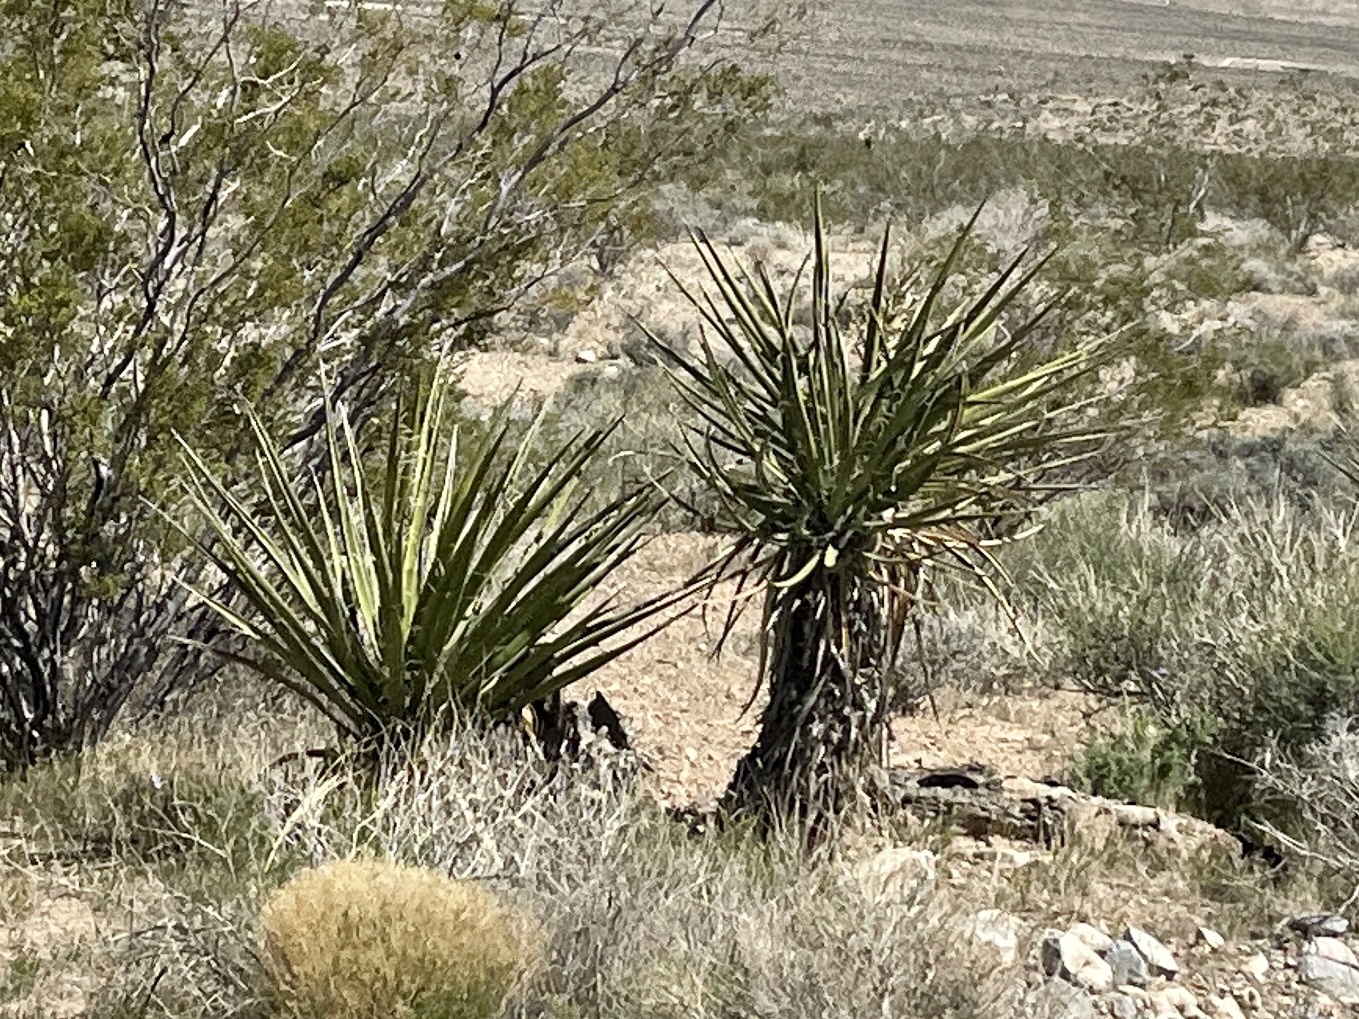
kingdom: Plantae
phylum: Tracheophyta
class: Liliopsida
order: Asparagales
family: Asparagaceae
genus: Yucca
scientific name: Yucca schidigera
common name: Mojave yucca
